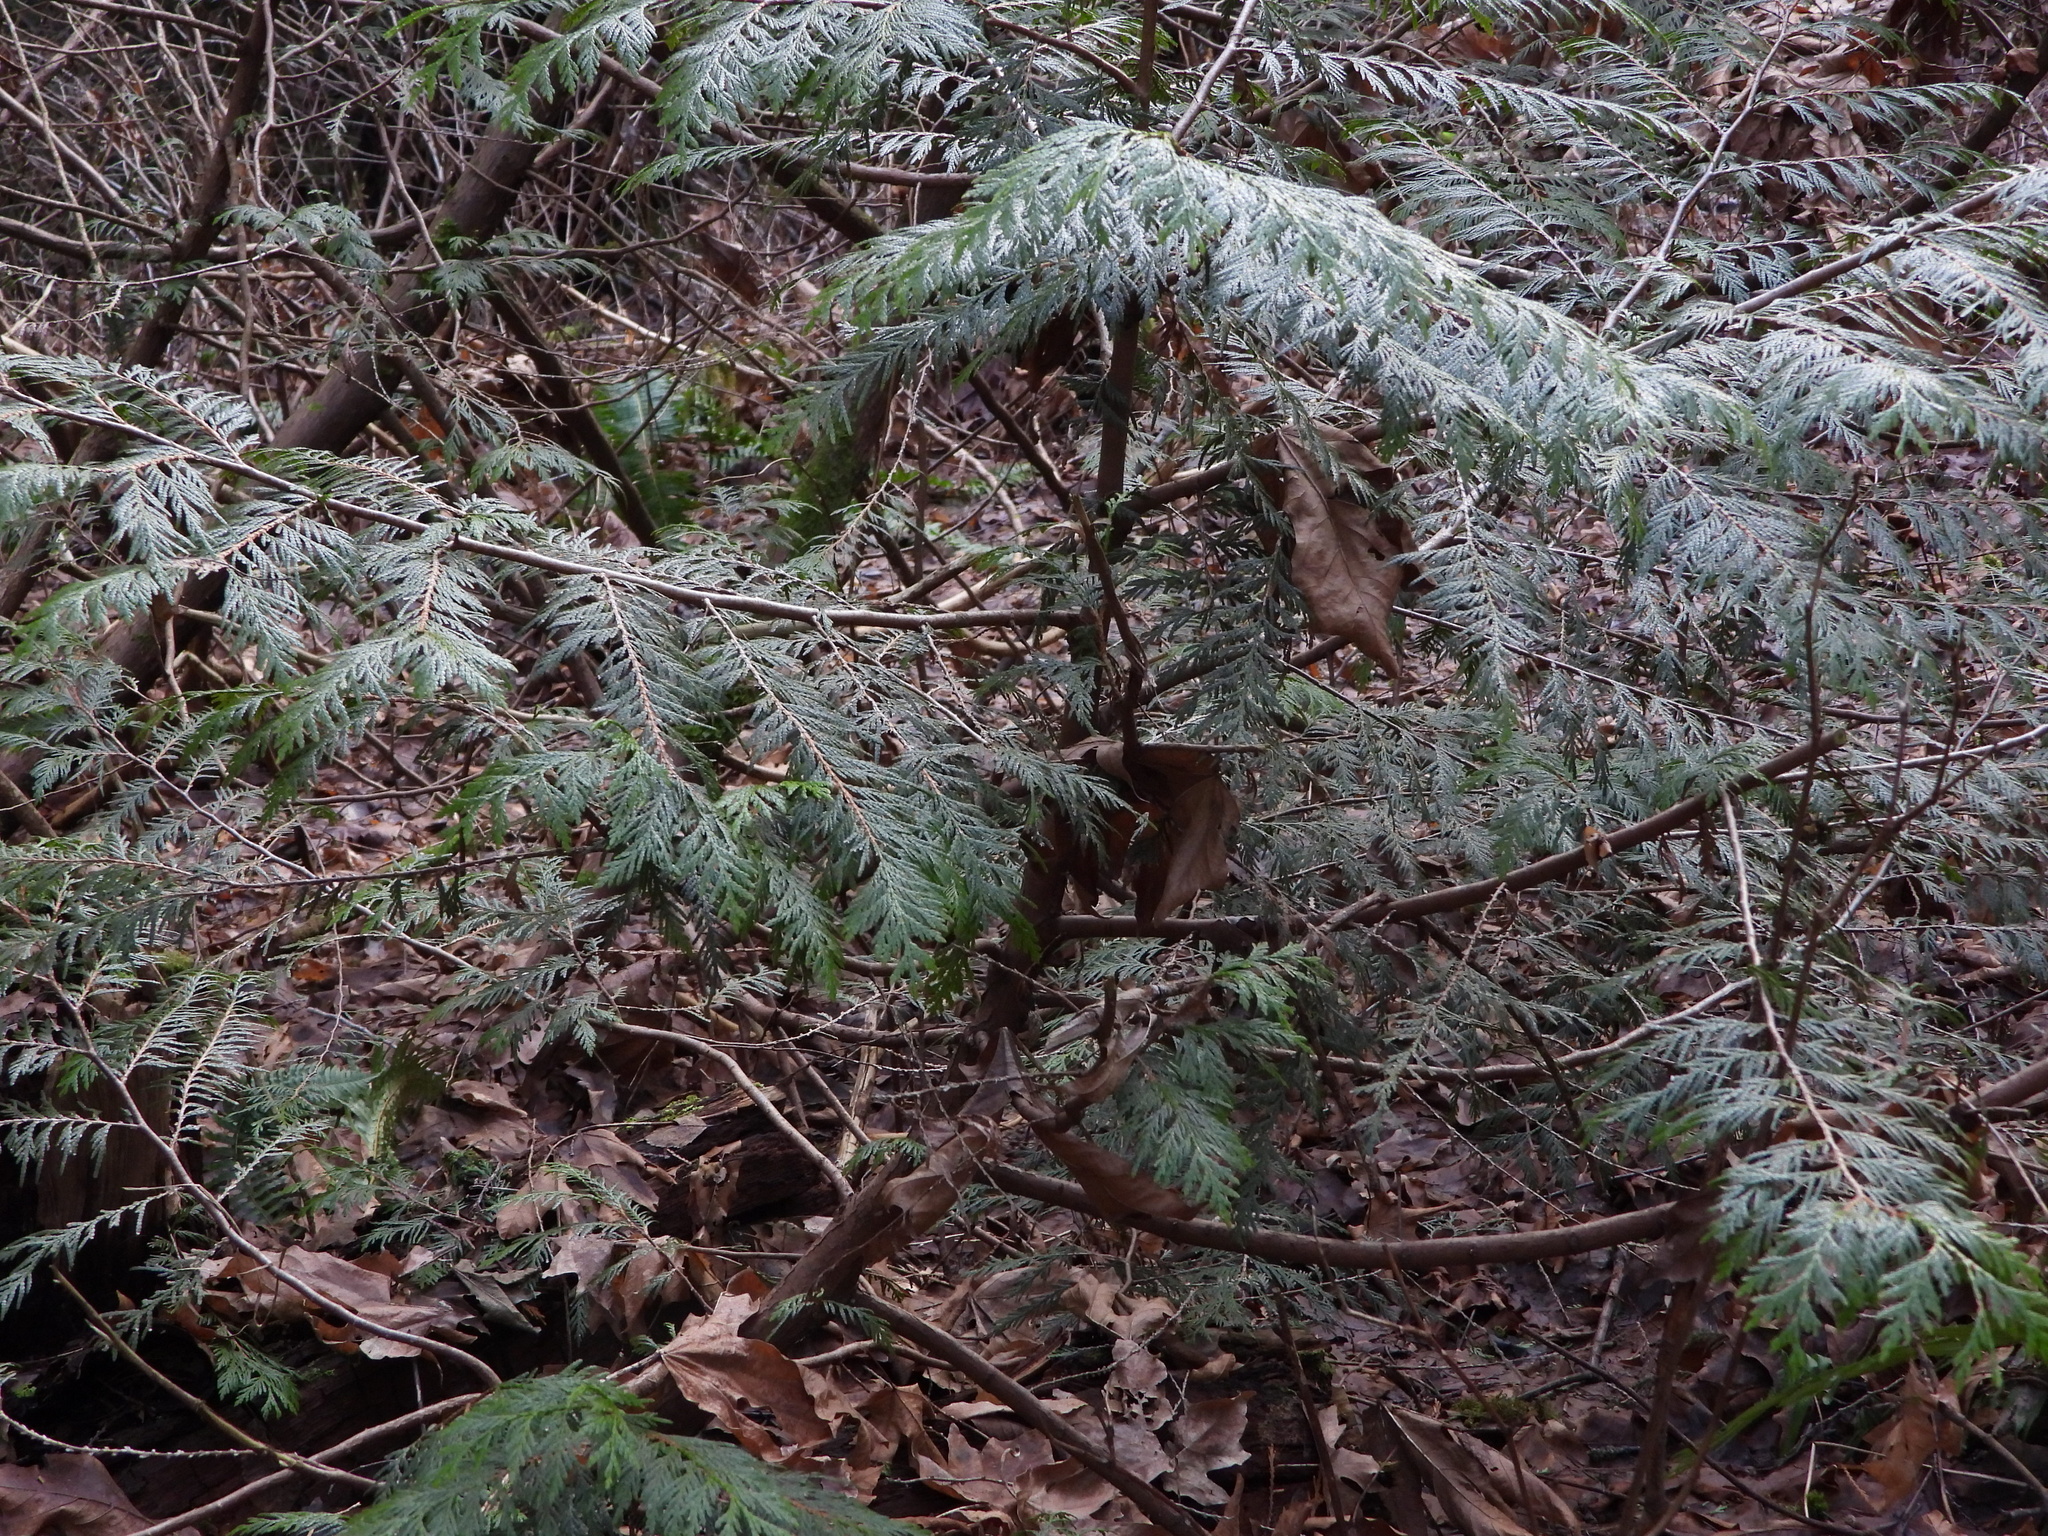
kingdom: Plantae
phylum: Tracheophyta
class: Pinopsida
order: Pinales
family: Cupressaceae
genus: Thuja
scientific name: Thuja plicata
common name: Western red-cedar
